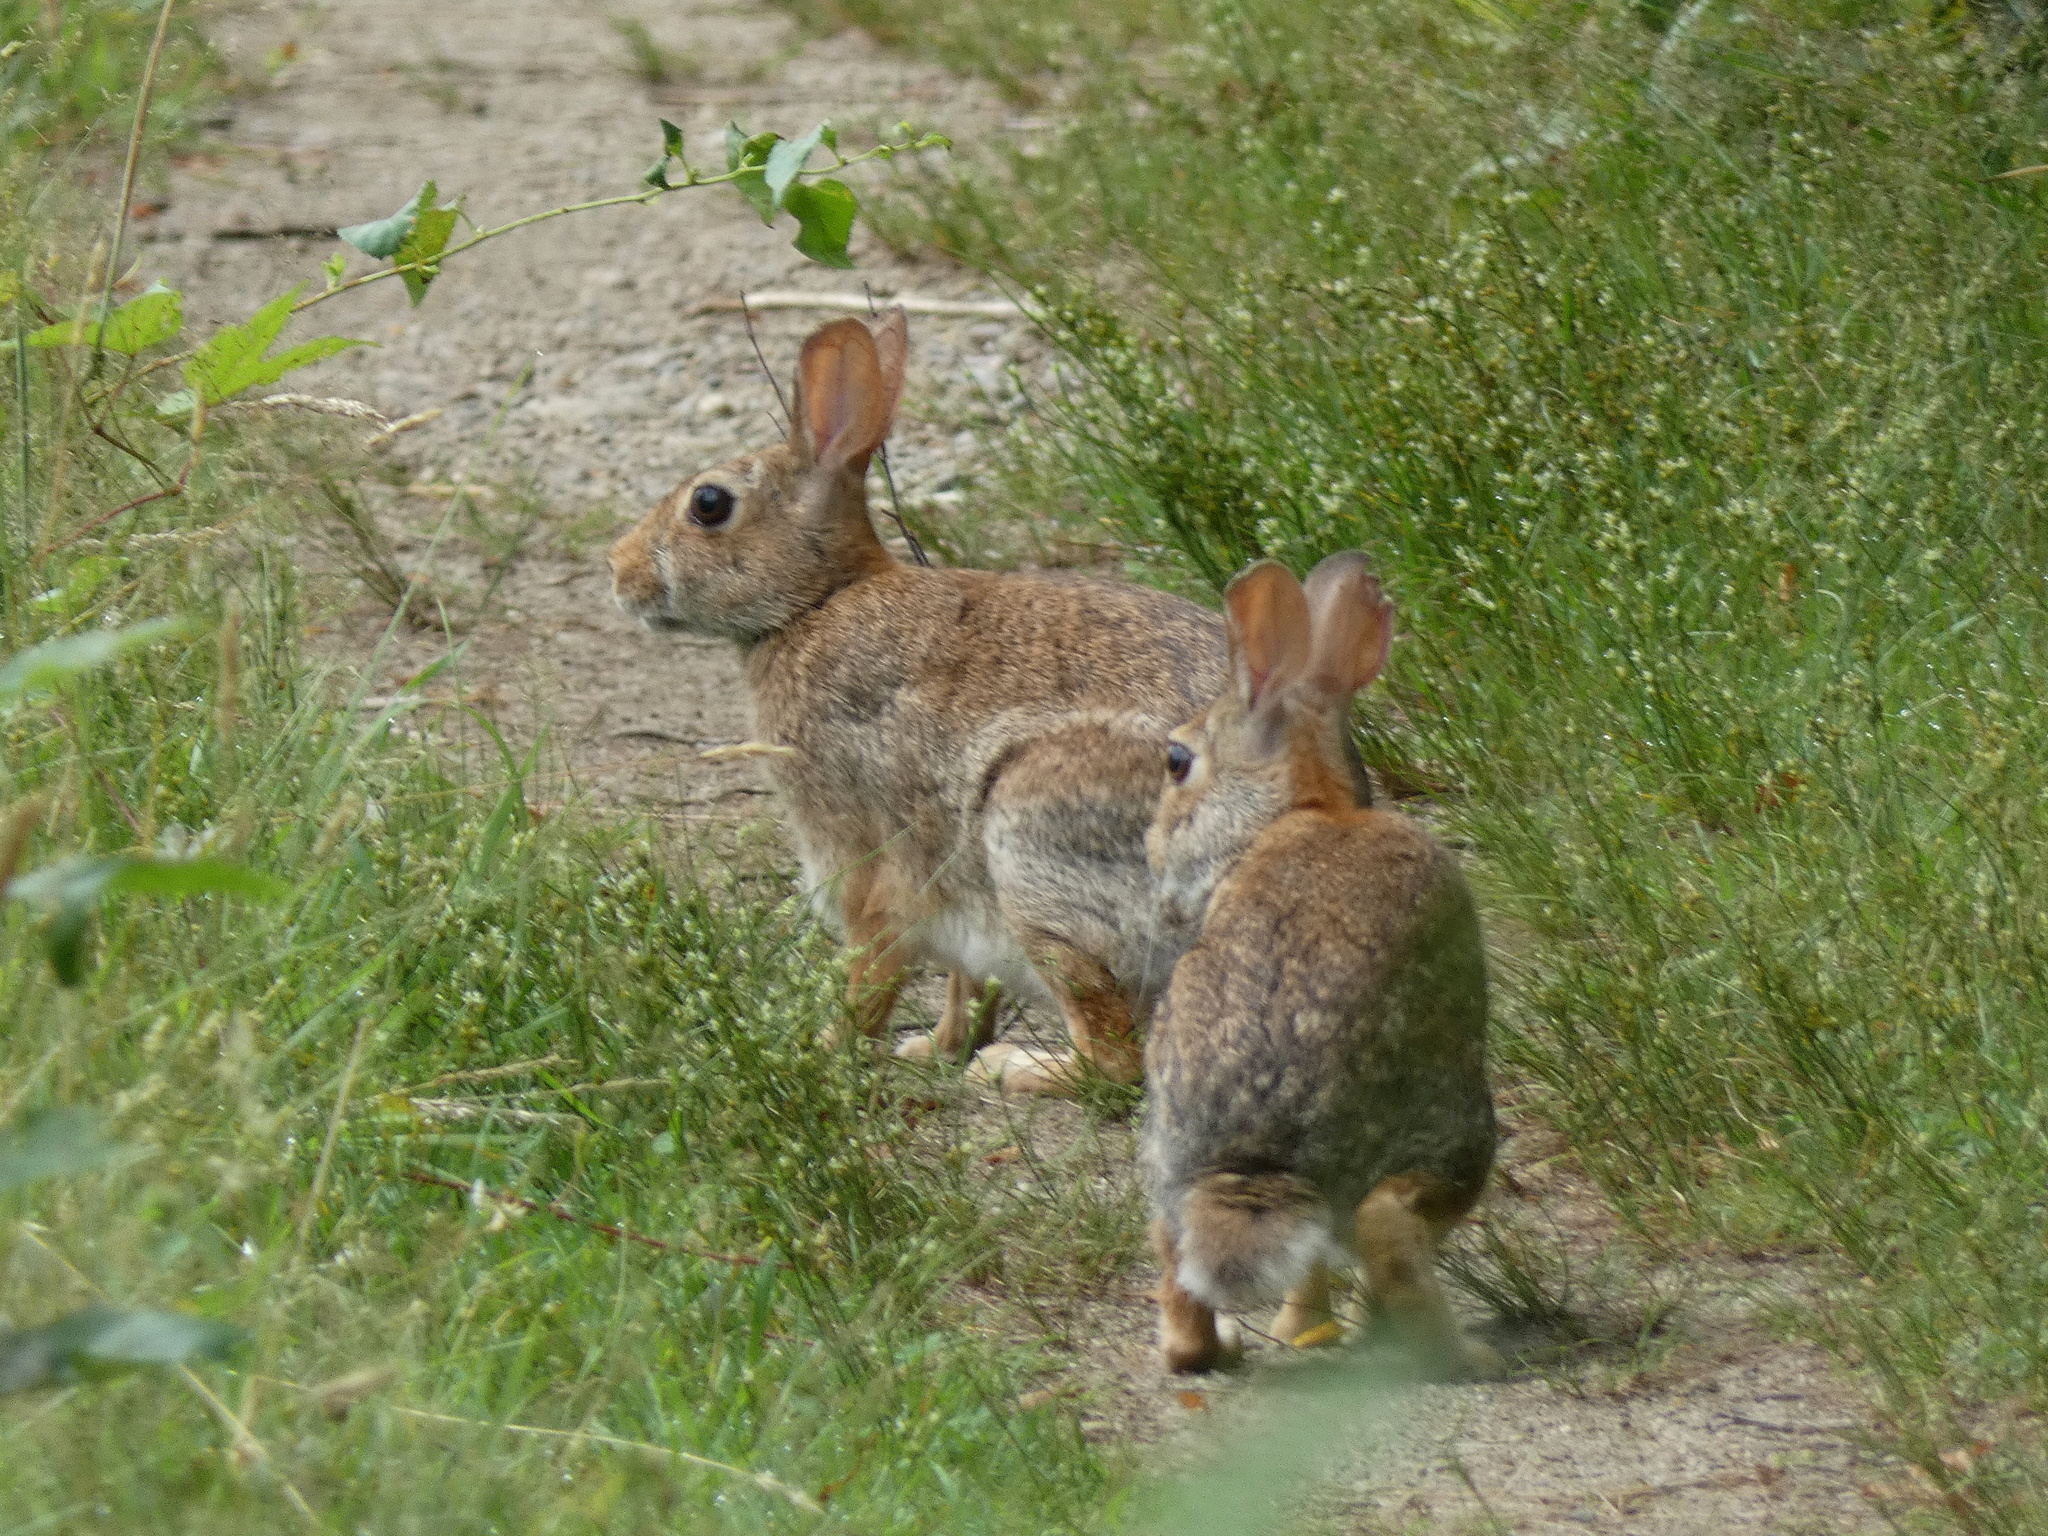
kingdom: Animalia
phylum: Chordata
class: Mammalia
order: Lagomorpha
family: Leporidae
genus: Sylvilagus
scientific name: Sylvilagus floridanus
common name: Eastern cottontail
